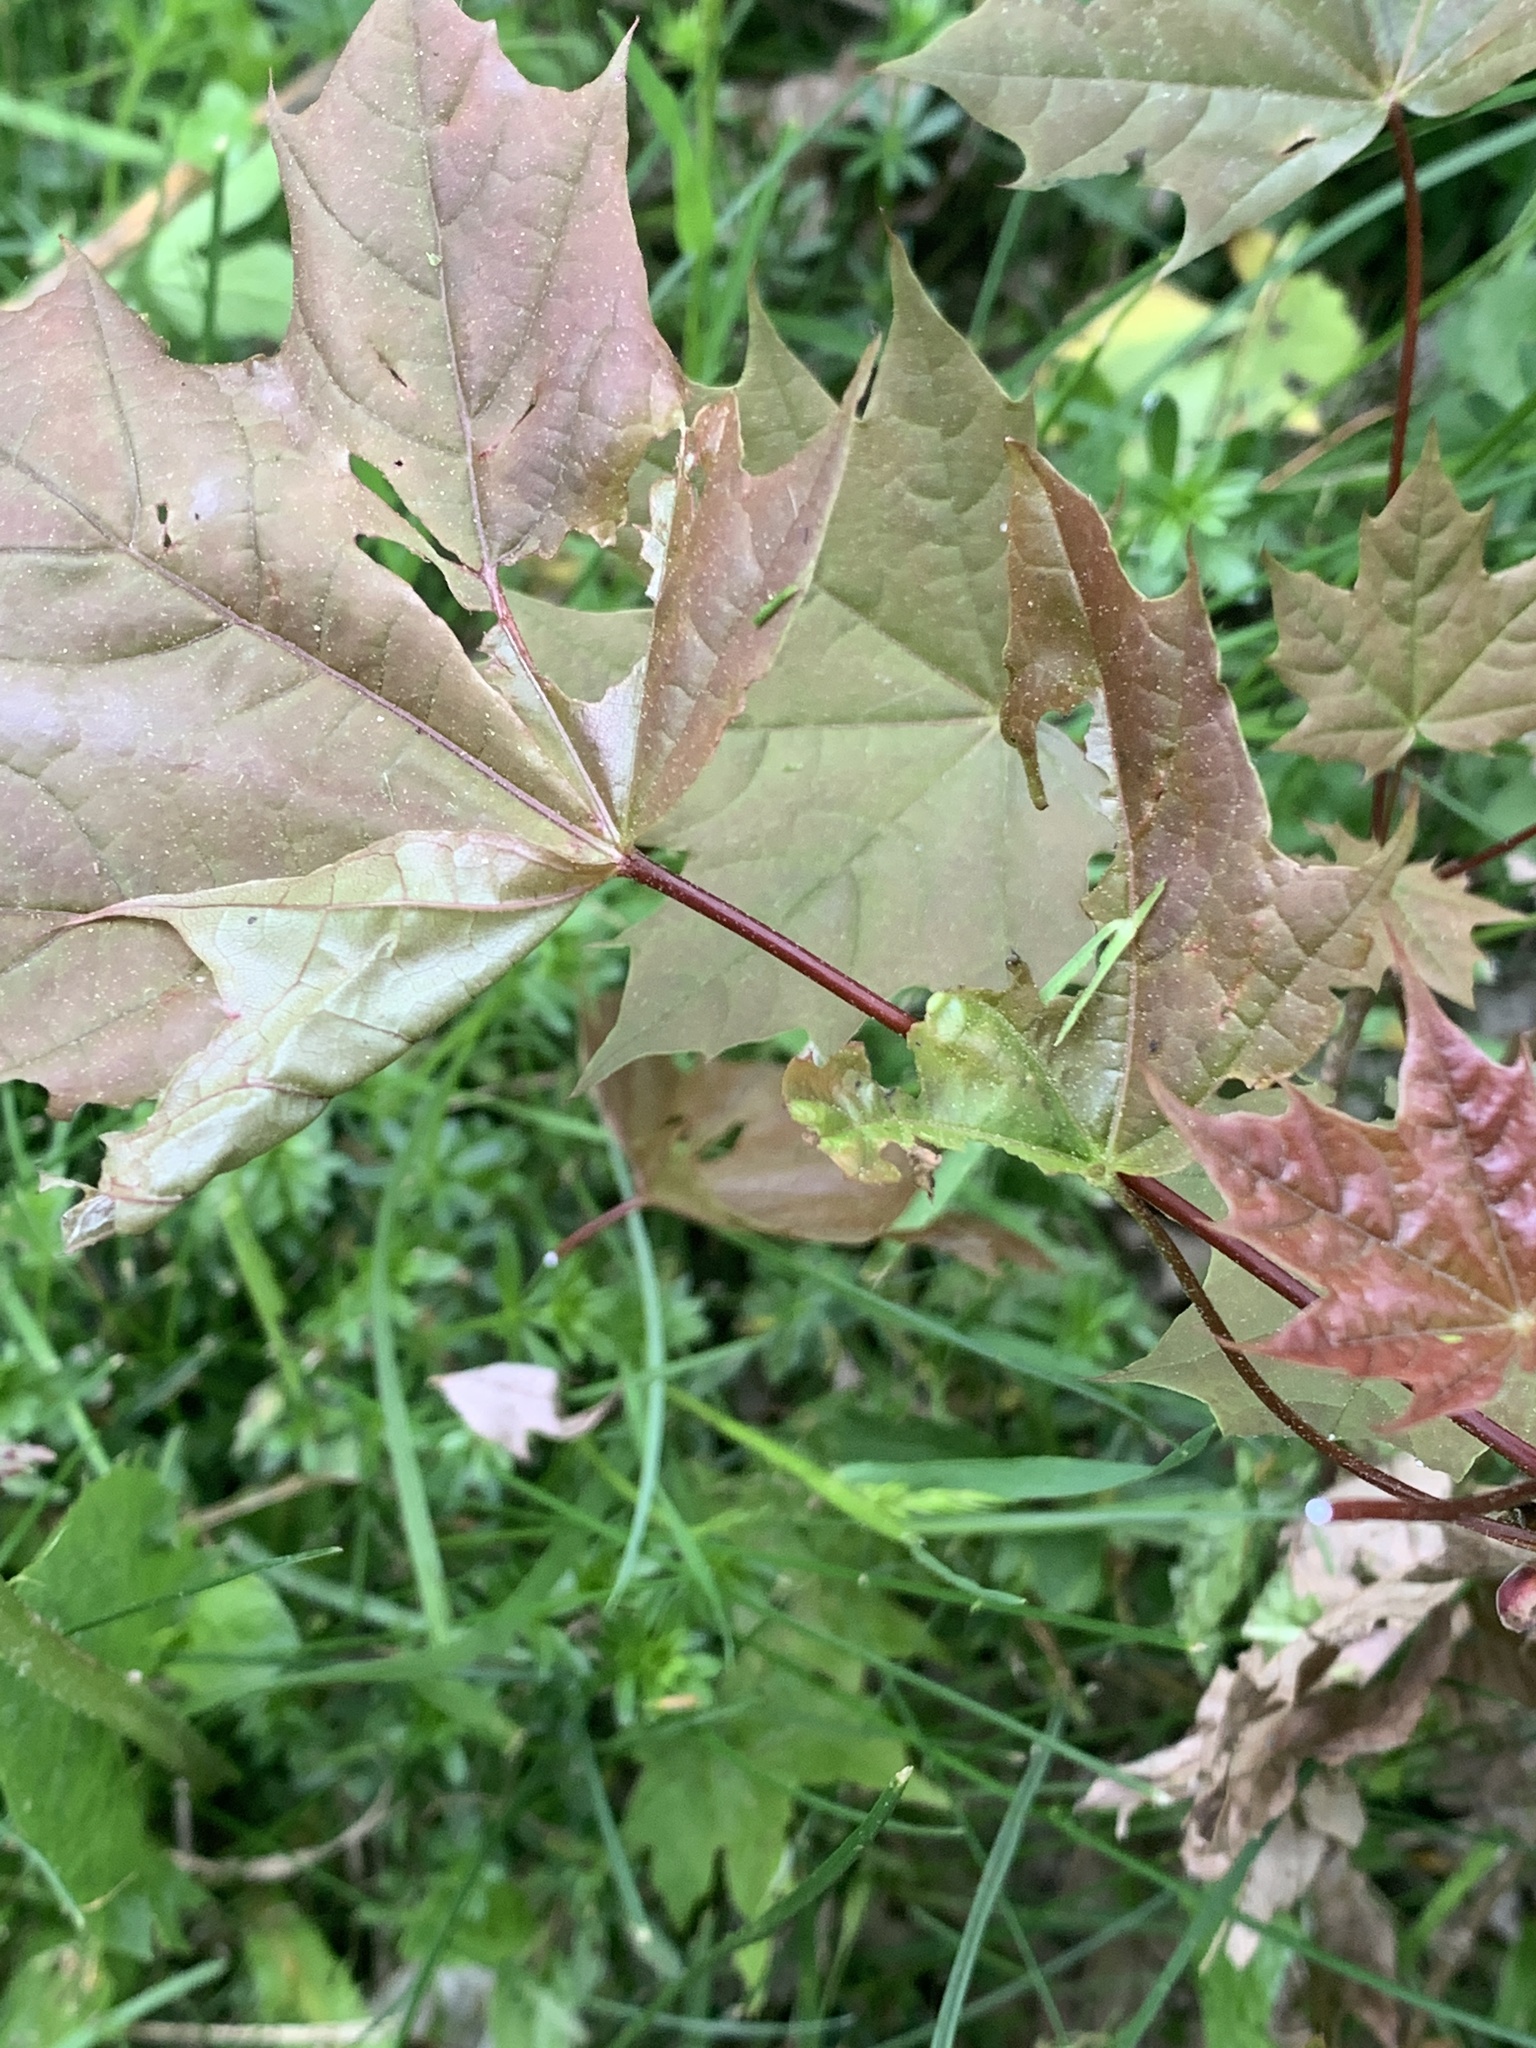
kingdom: Plantae
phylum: Tracheophyta
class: Magnoliopsida
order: Sapindales
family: Sapindaceae
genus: Acer
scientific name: Acer platanoides
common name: Norway maple
